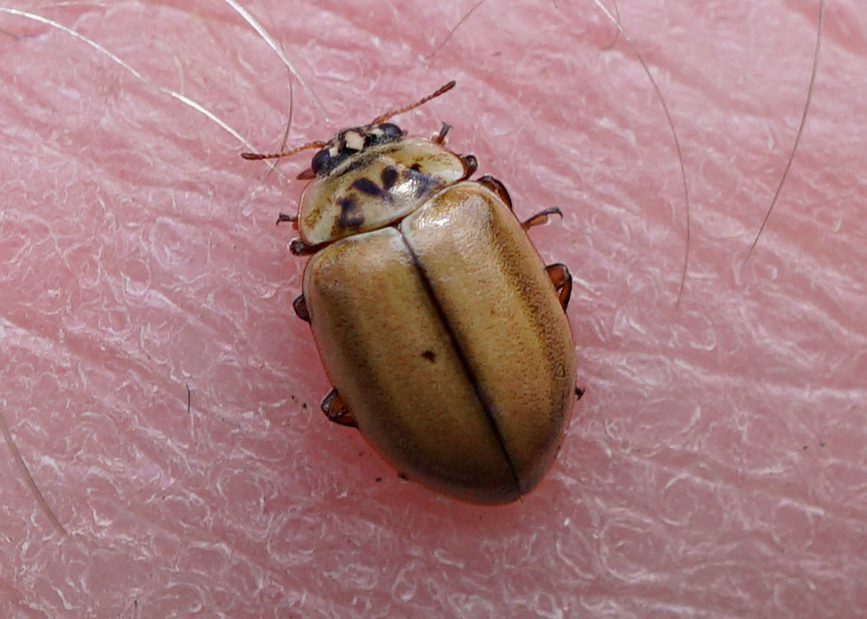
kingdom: Animalia
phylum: Arthropoda
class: Insecta
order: Coleoptera
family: Coccinellidae
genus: Aphidecta
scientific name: Aphidecta obliterata
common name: Larch ladybird
